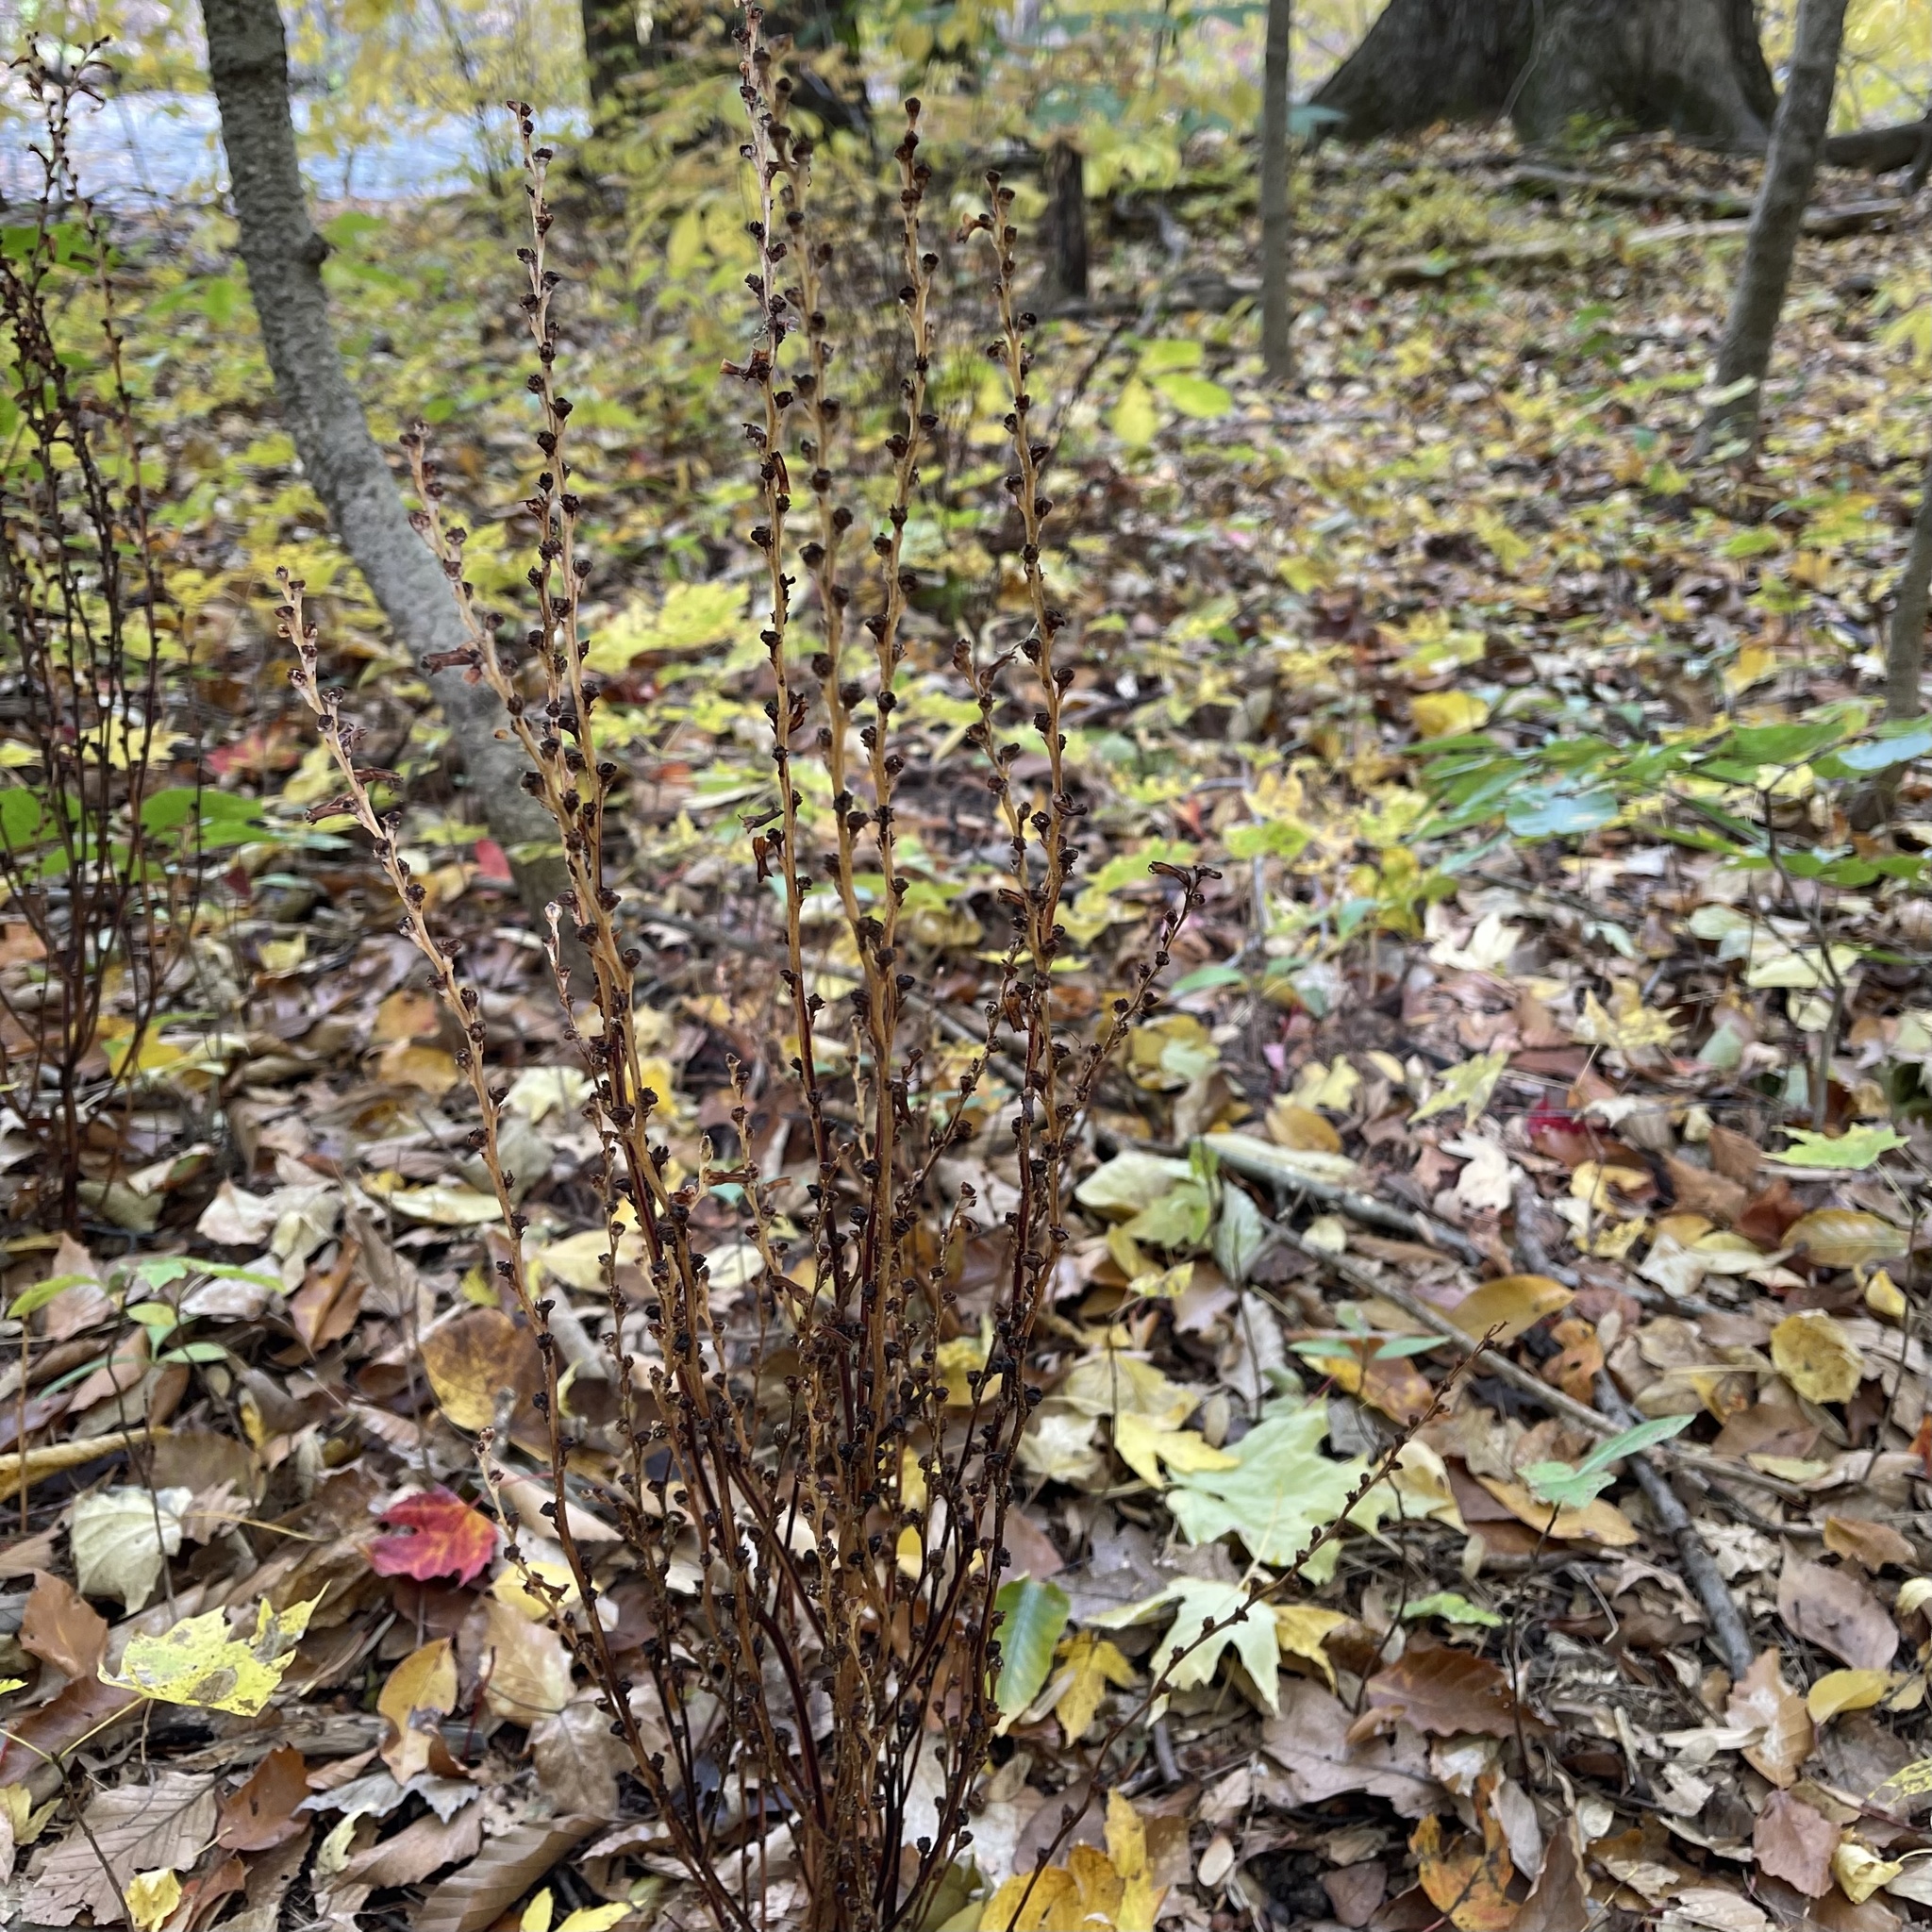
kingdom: Plantae
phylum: Tracheophyta
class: Magnoliopsida
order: Lamiales
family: Orobanchaceae
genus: Epifagus
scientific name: Epifagus virginiana
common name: Beechdrops
